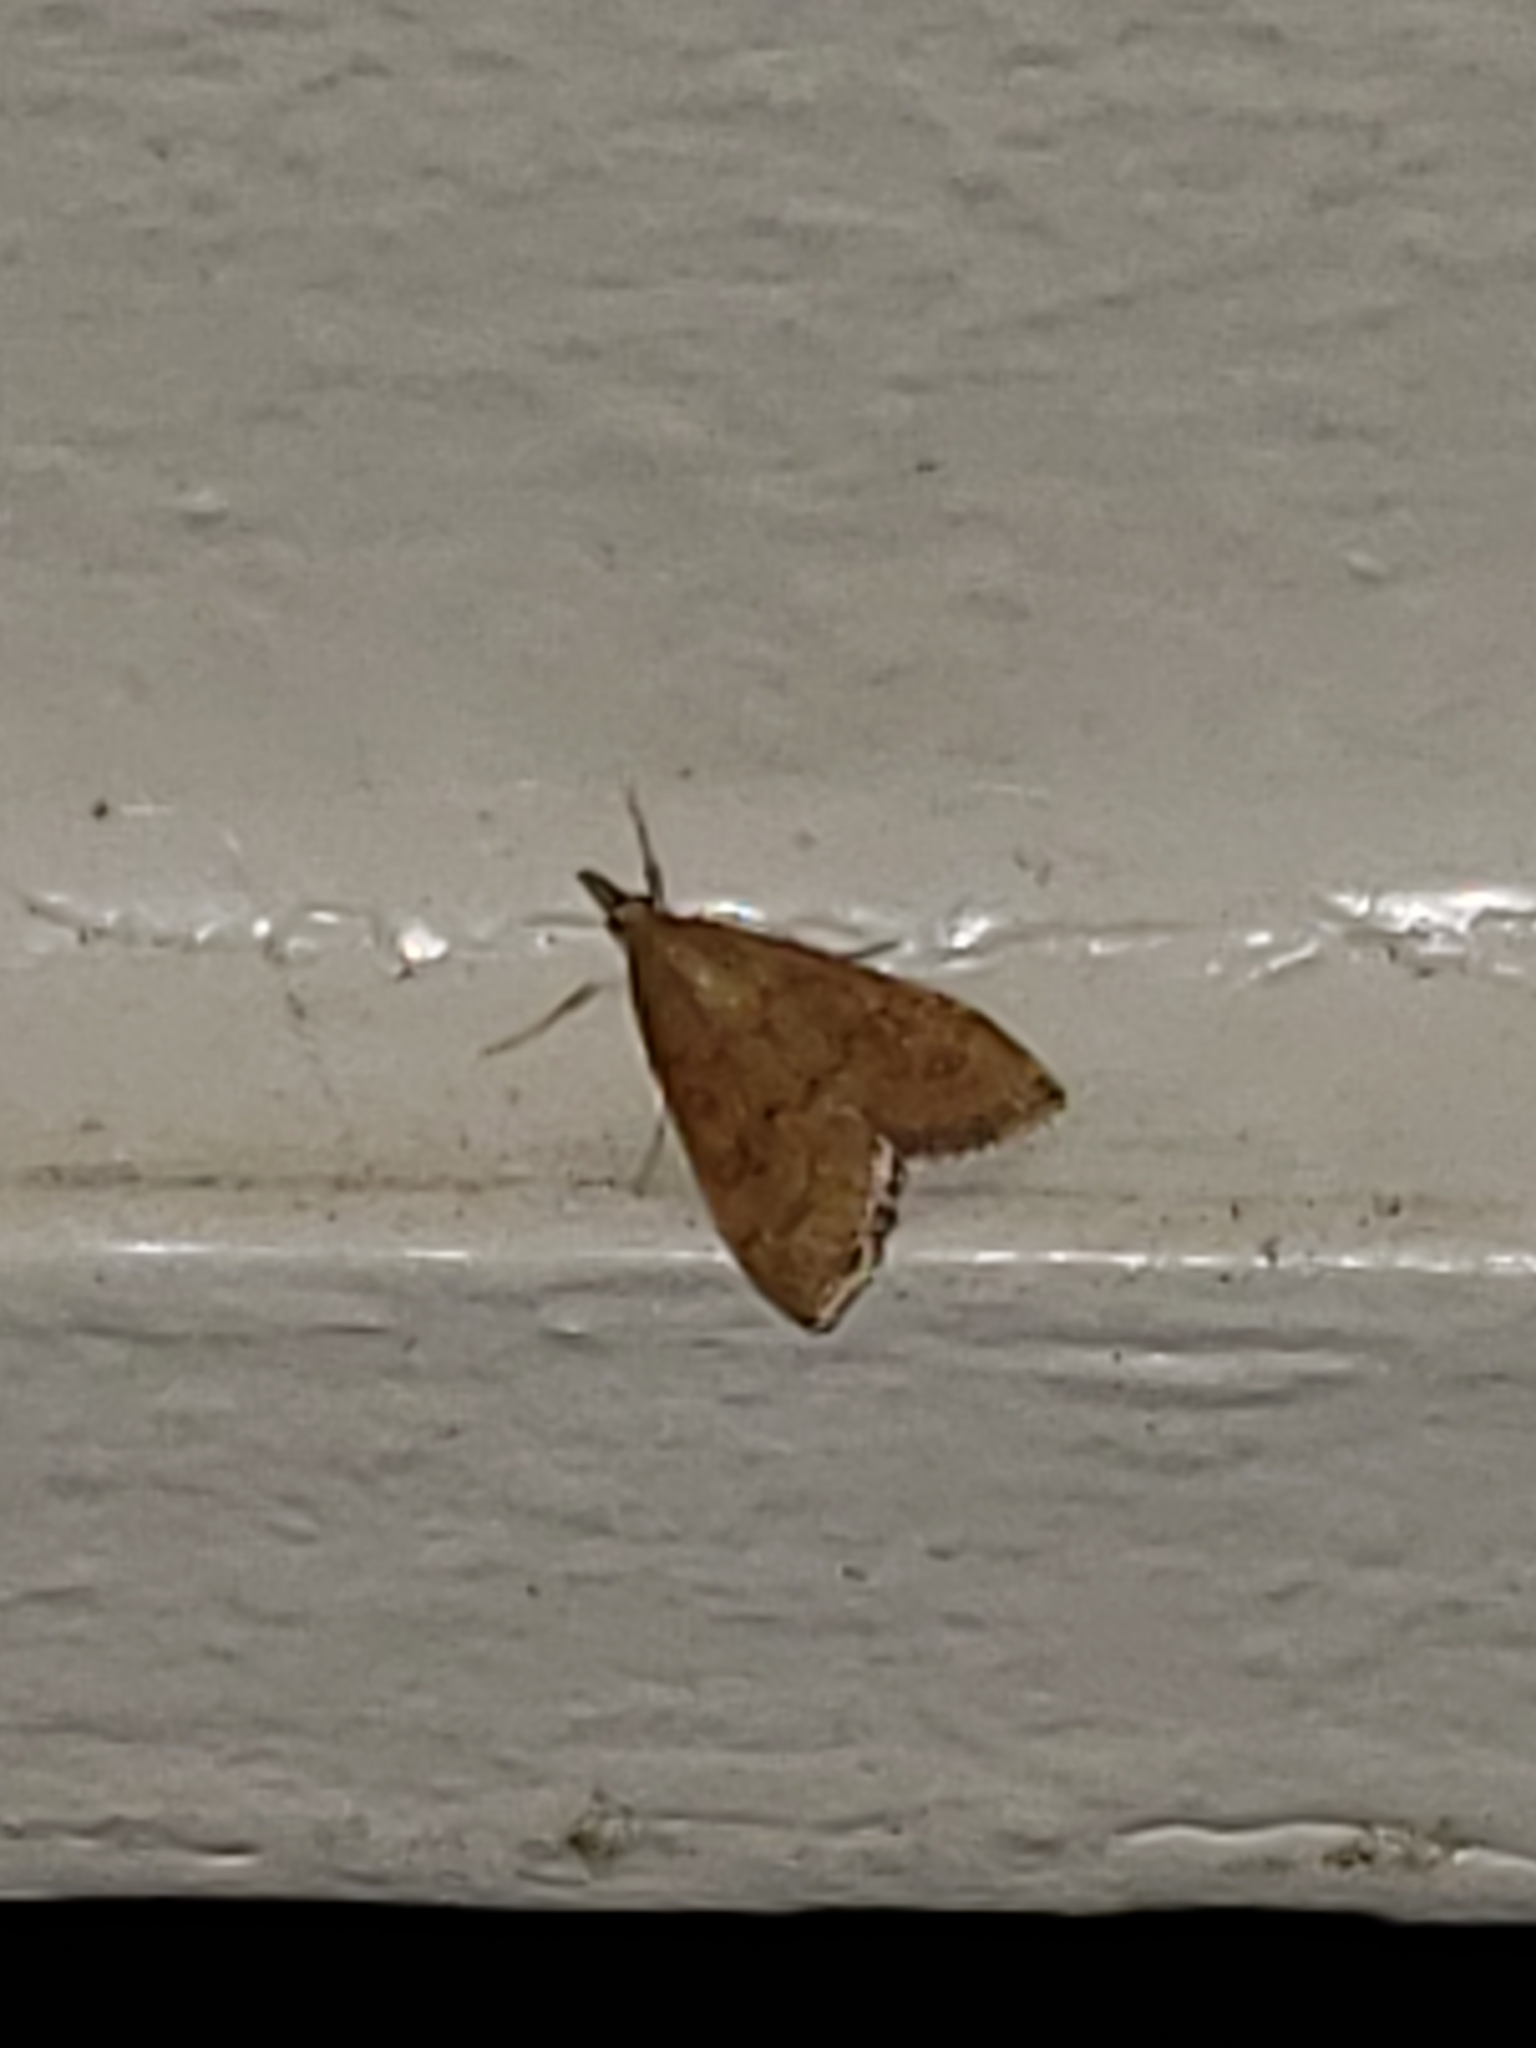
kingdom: Animalia
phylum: Arthropoda
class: Insecta
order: Lepidoptera
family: Crambidae
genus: Udea
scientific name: Udea rubigalis
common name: Celery leaftier moth
